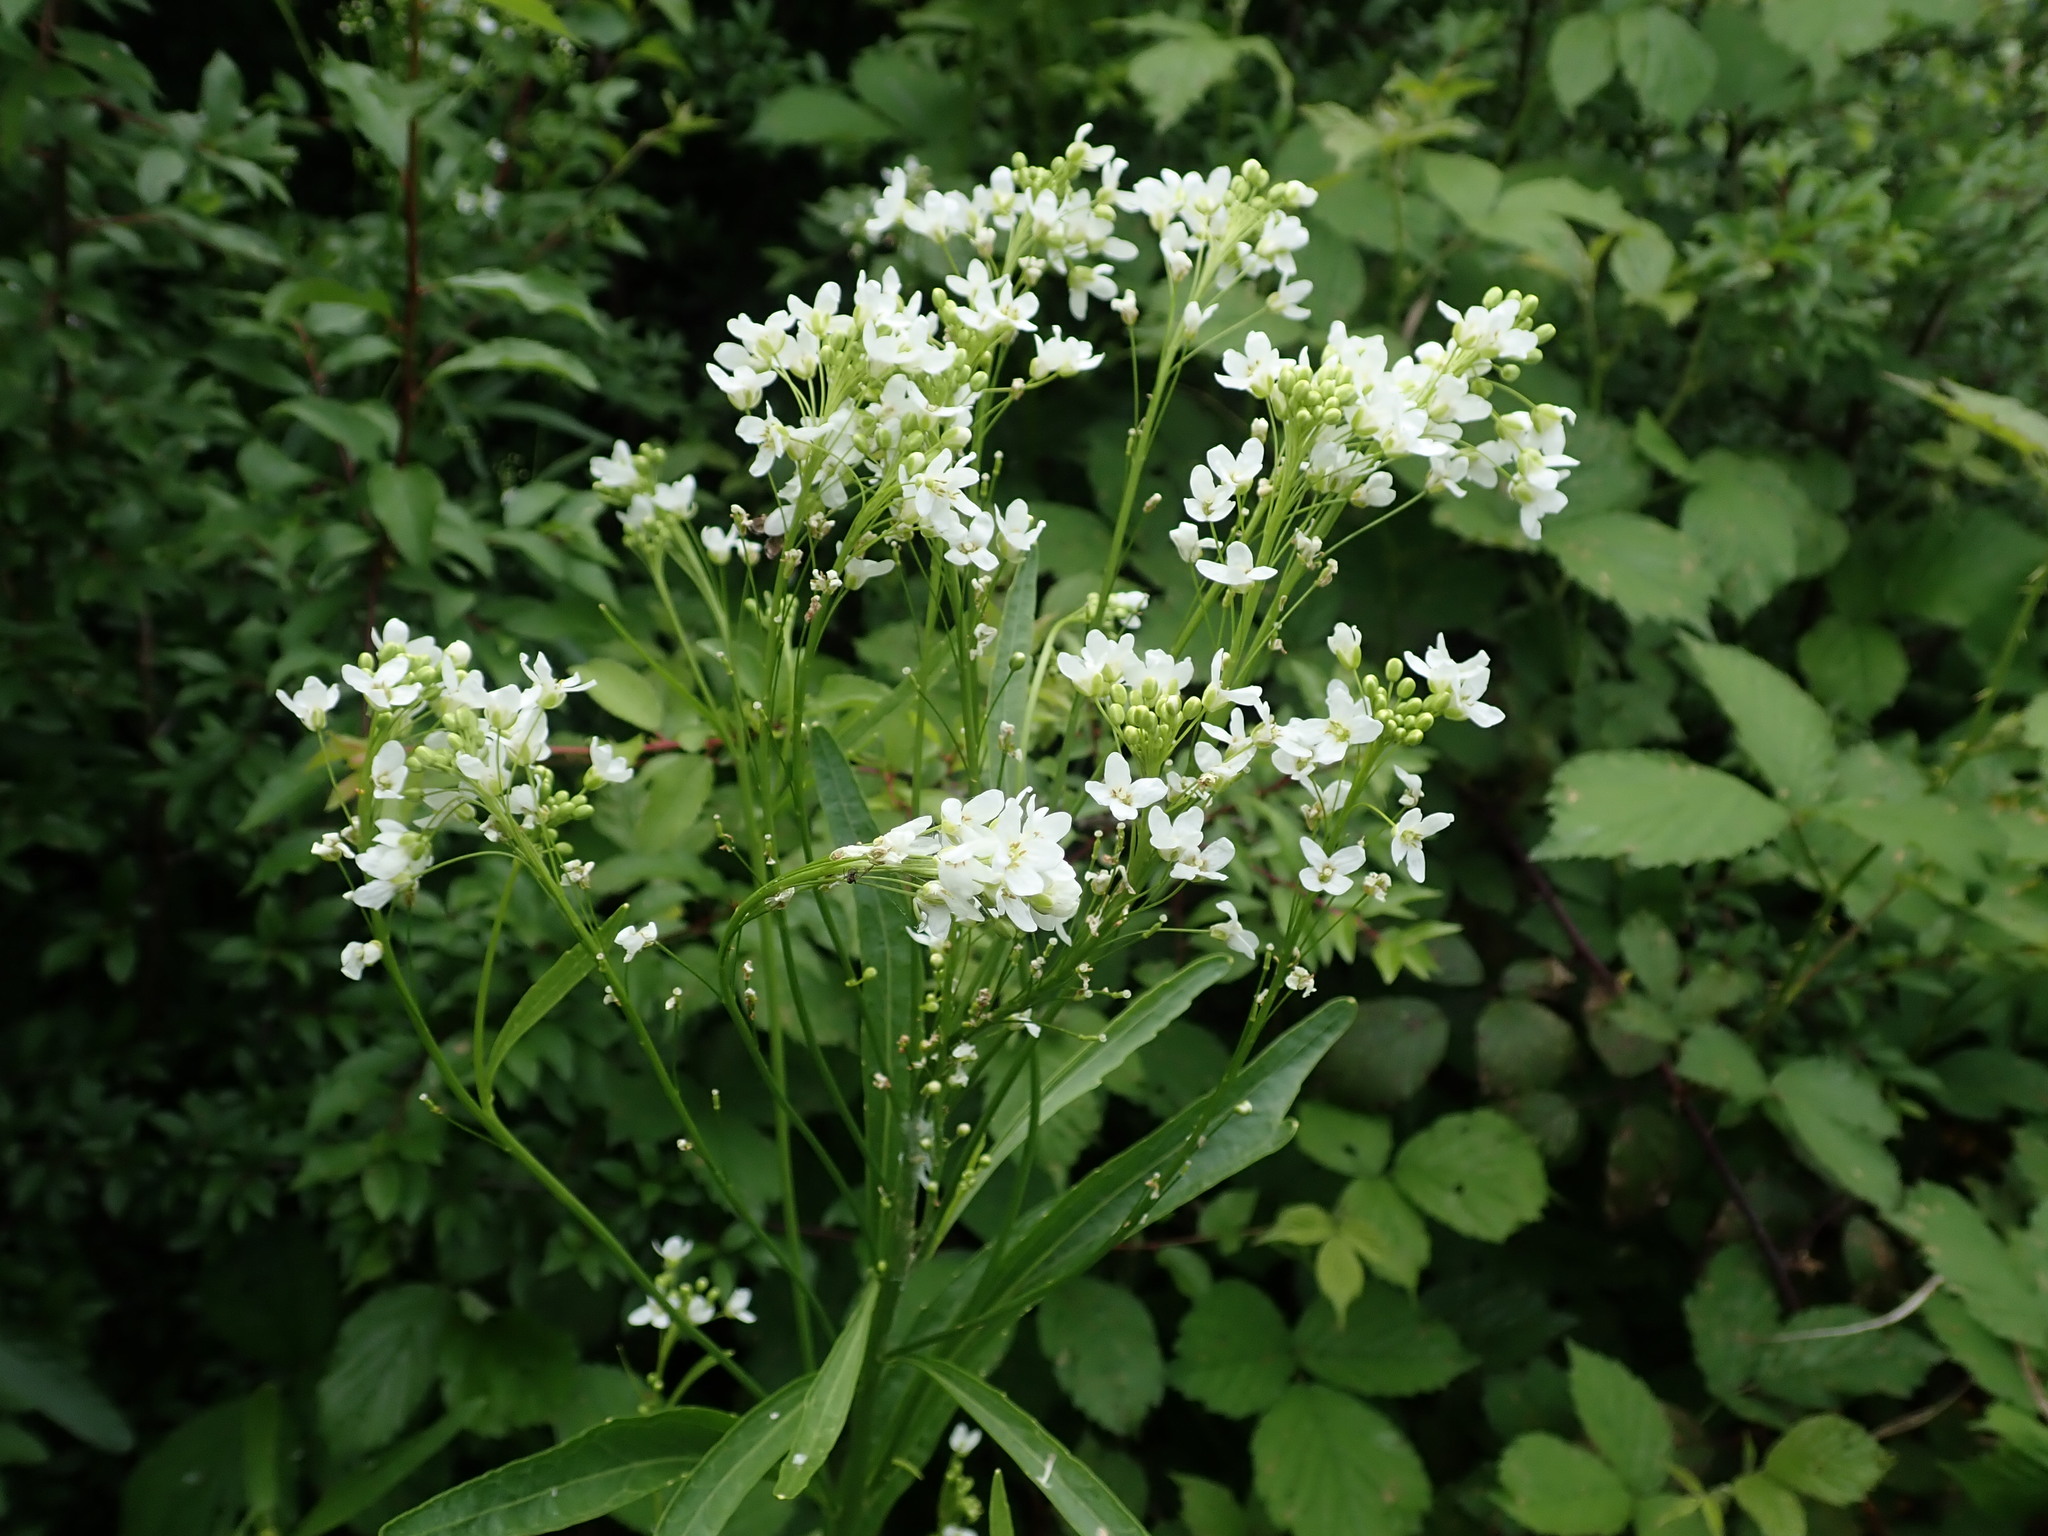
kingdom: Plantae
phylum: Tracheophyta
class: Magnoliopsida
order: Brassicales
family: Brassicaceae
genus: Armoracia
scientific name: Armoracia rusticana
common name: Horseradish
